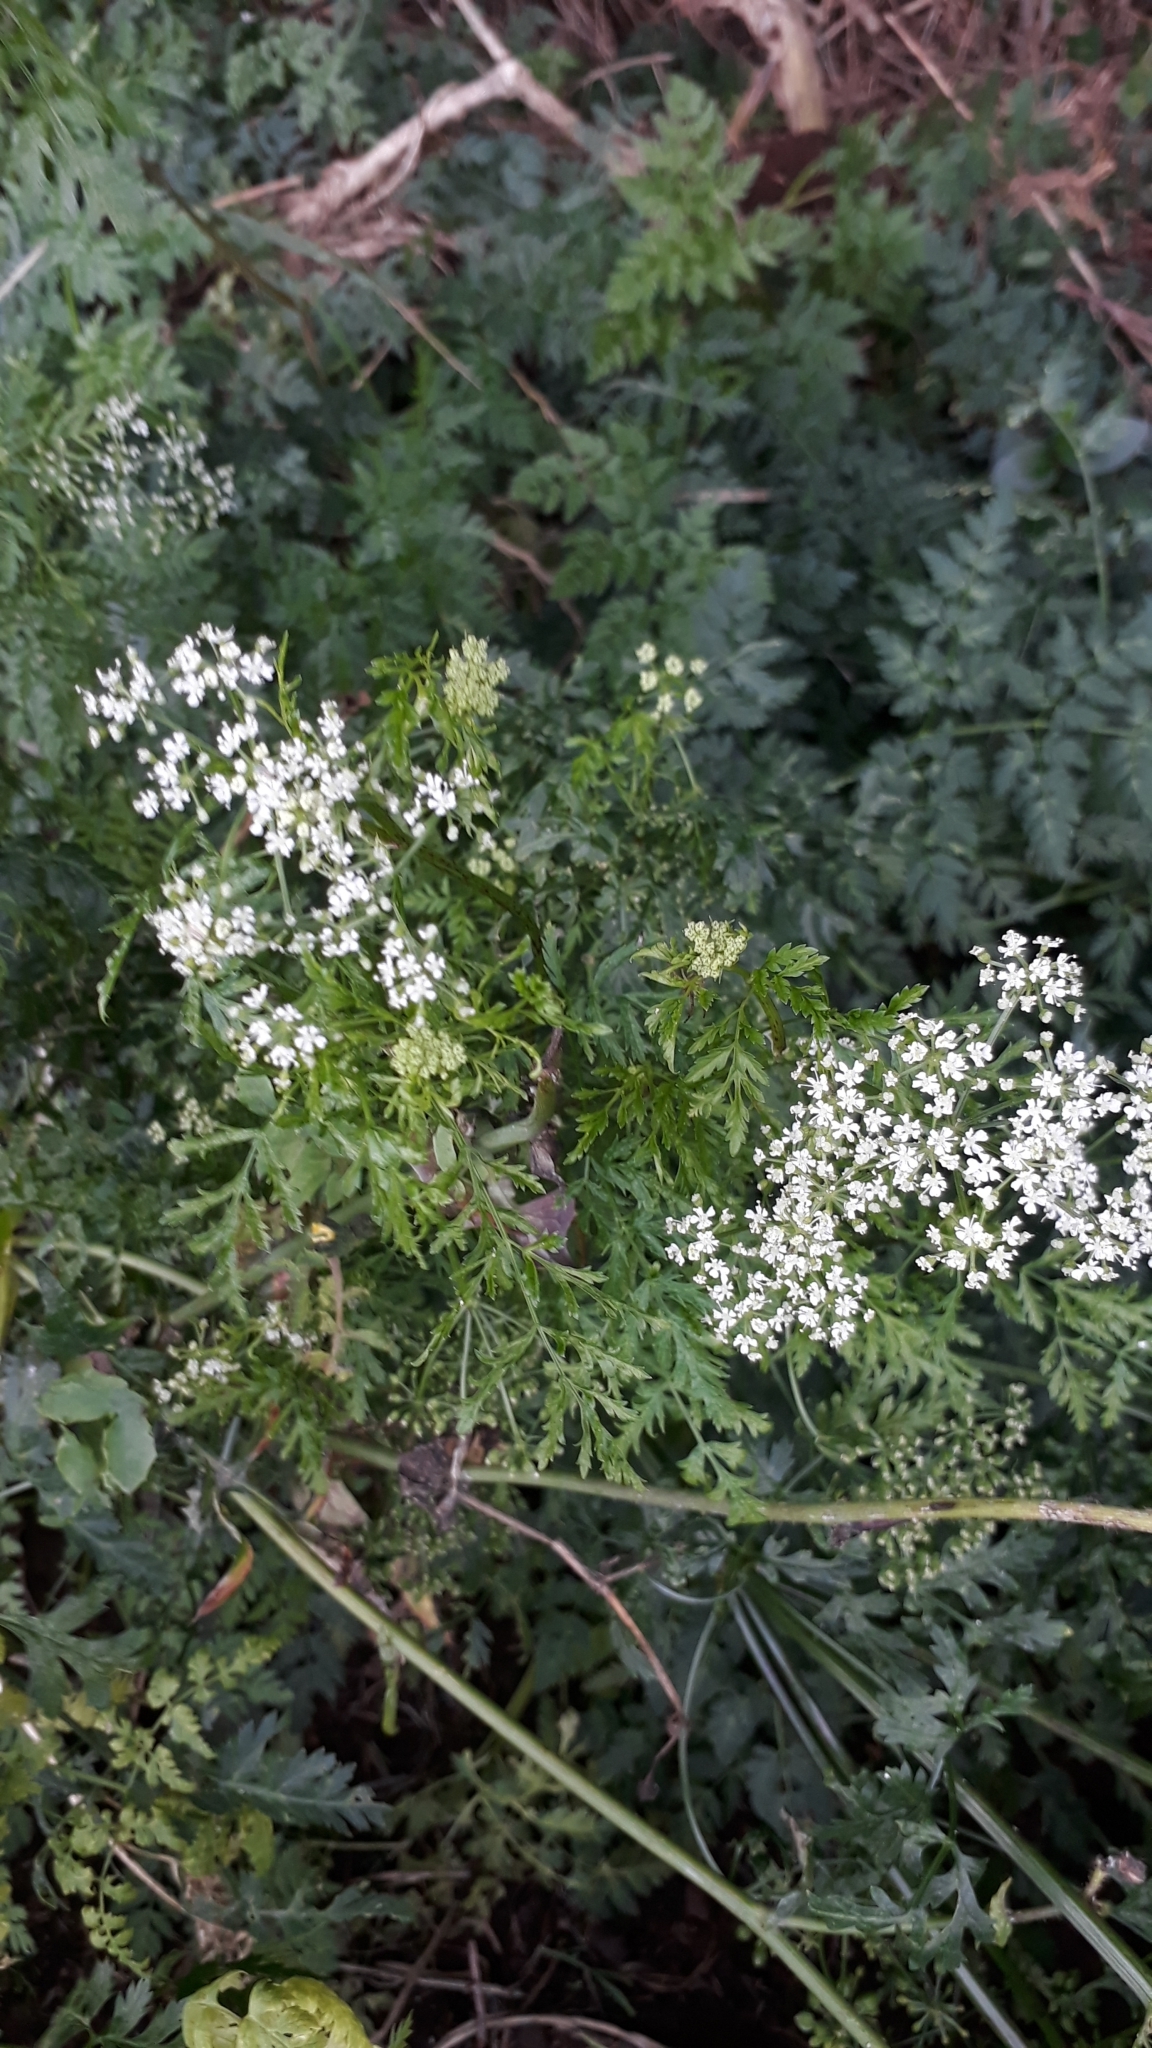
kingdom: Plantae
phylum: Tracheophyta
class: Magnoliopsida
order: Apiales
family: Apiaceae
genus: Conium
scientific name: Conium maculatum
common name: Hemlock
